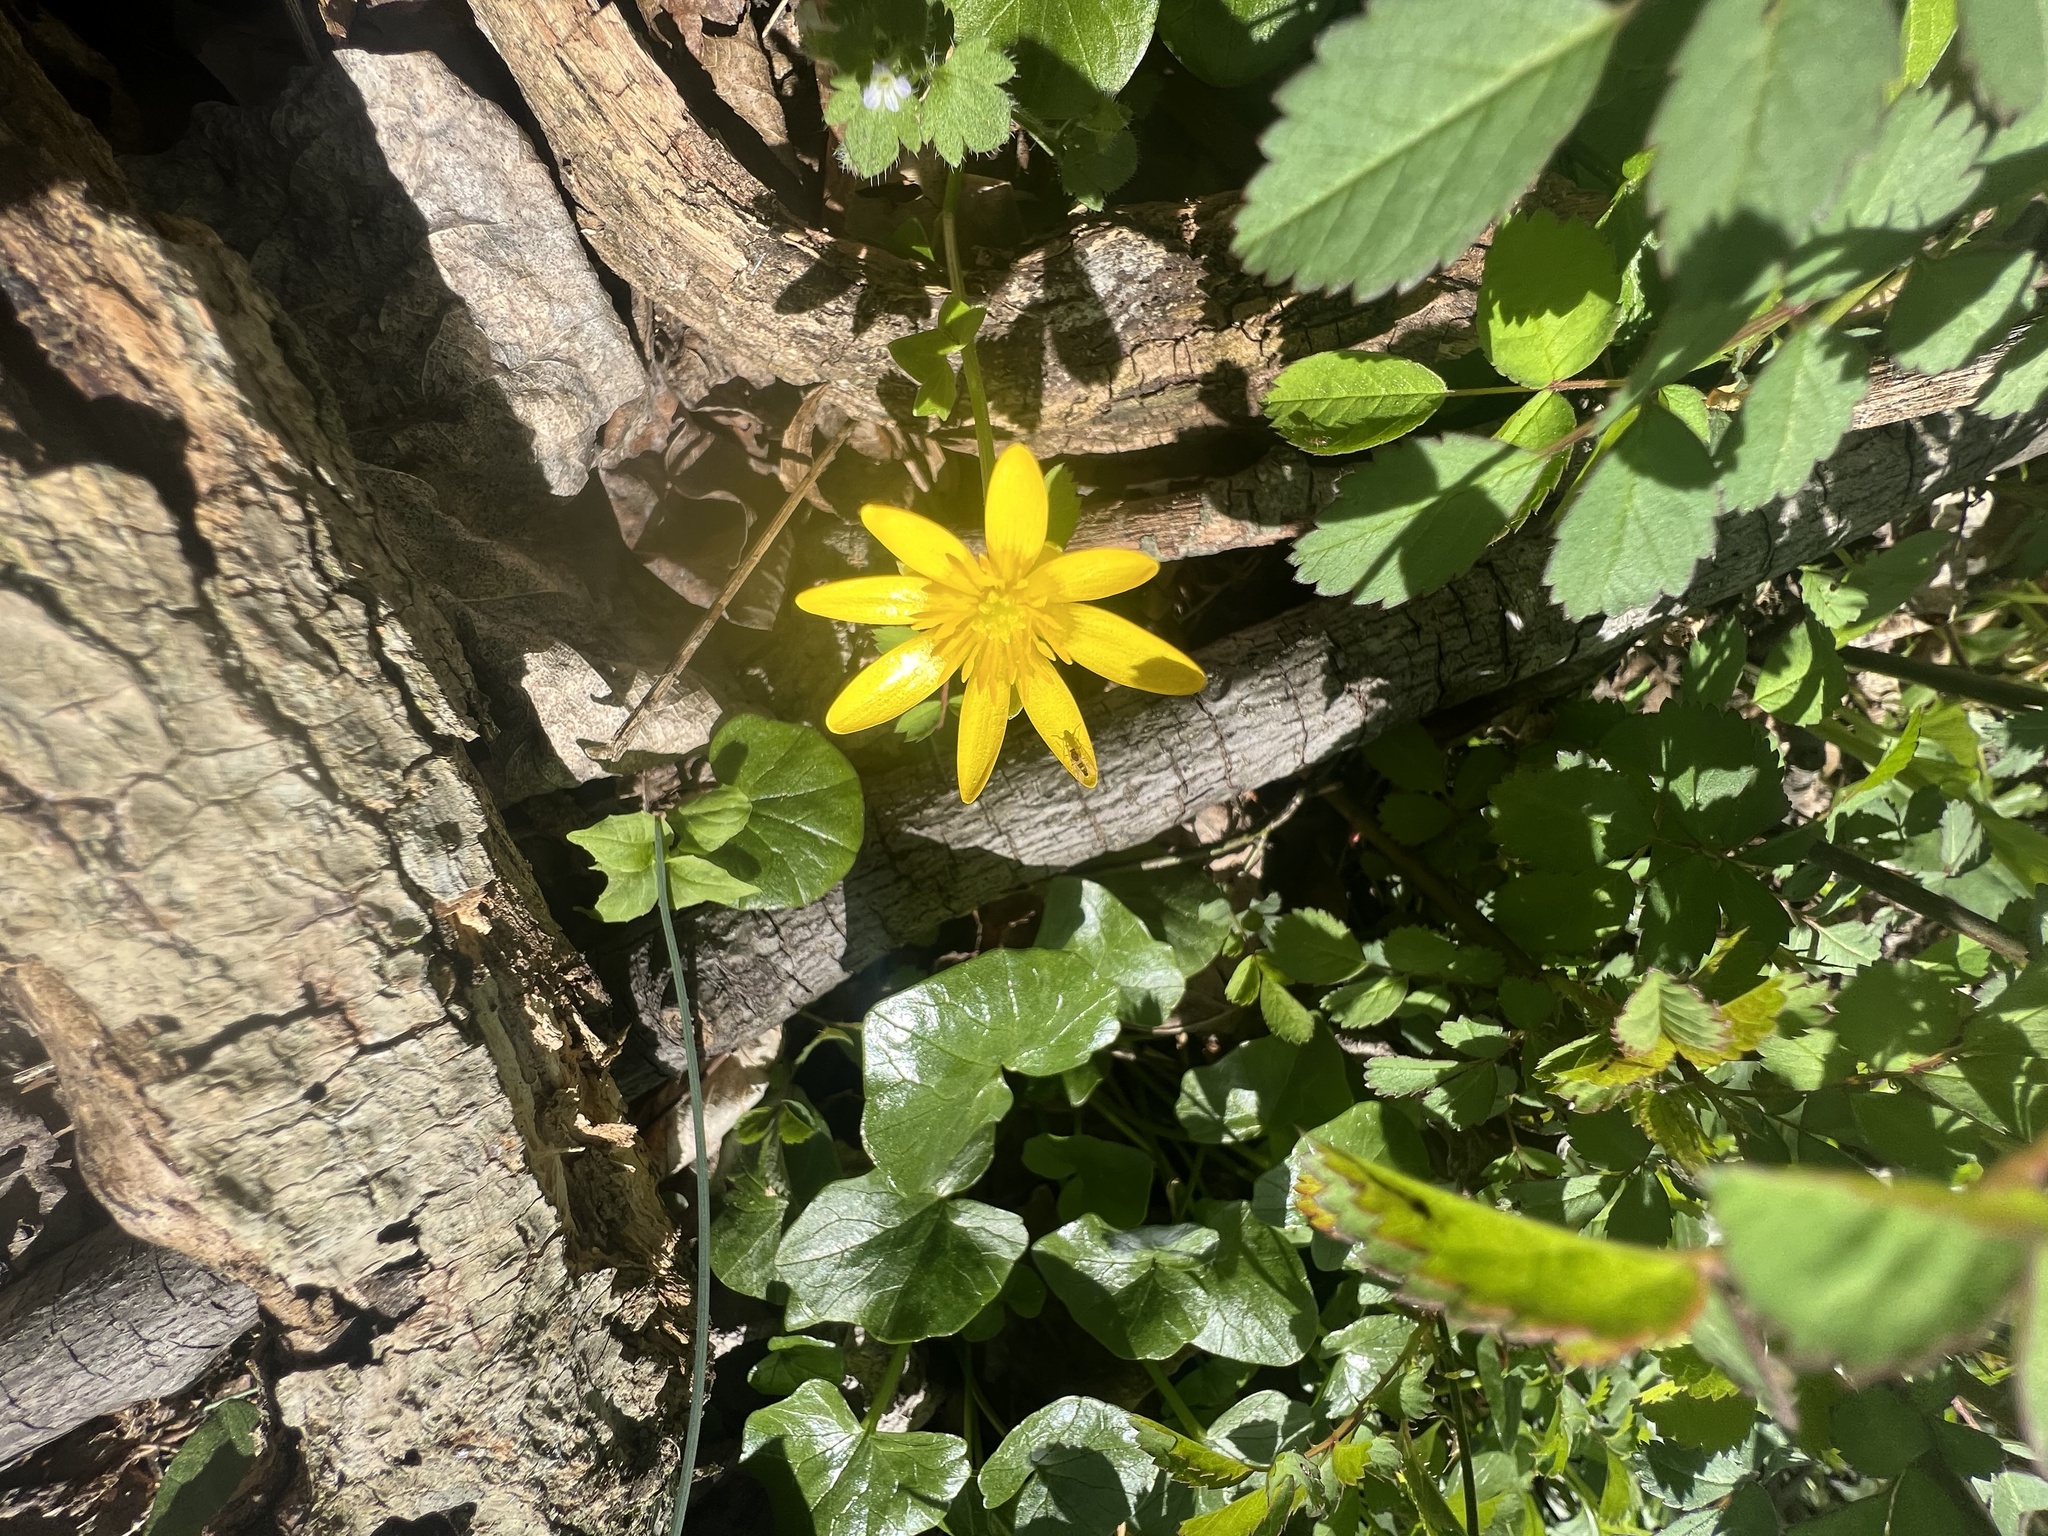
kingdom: Plantae
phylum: Tracheophyta
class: Magnoliopsida
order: Ranunculales
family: Ranunculaceae
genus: Ficaria
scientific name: Ficaria verna
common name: Lesser celandine
